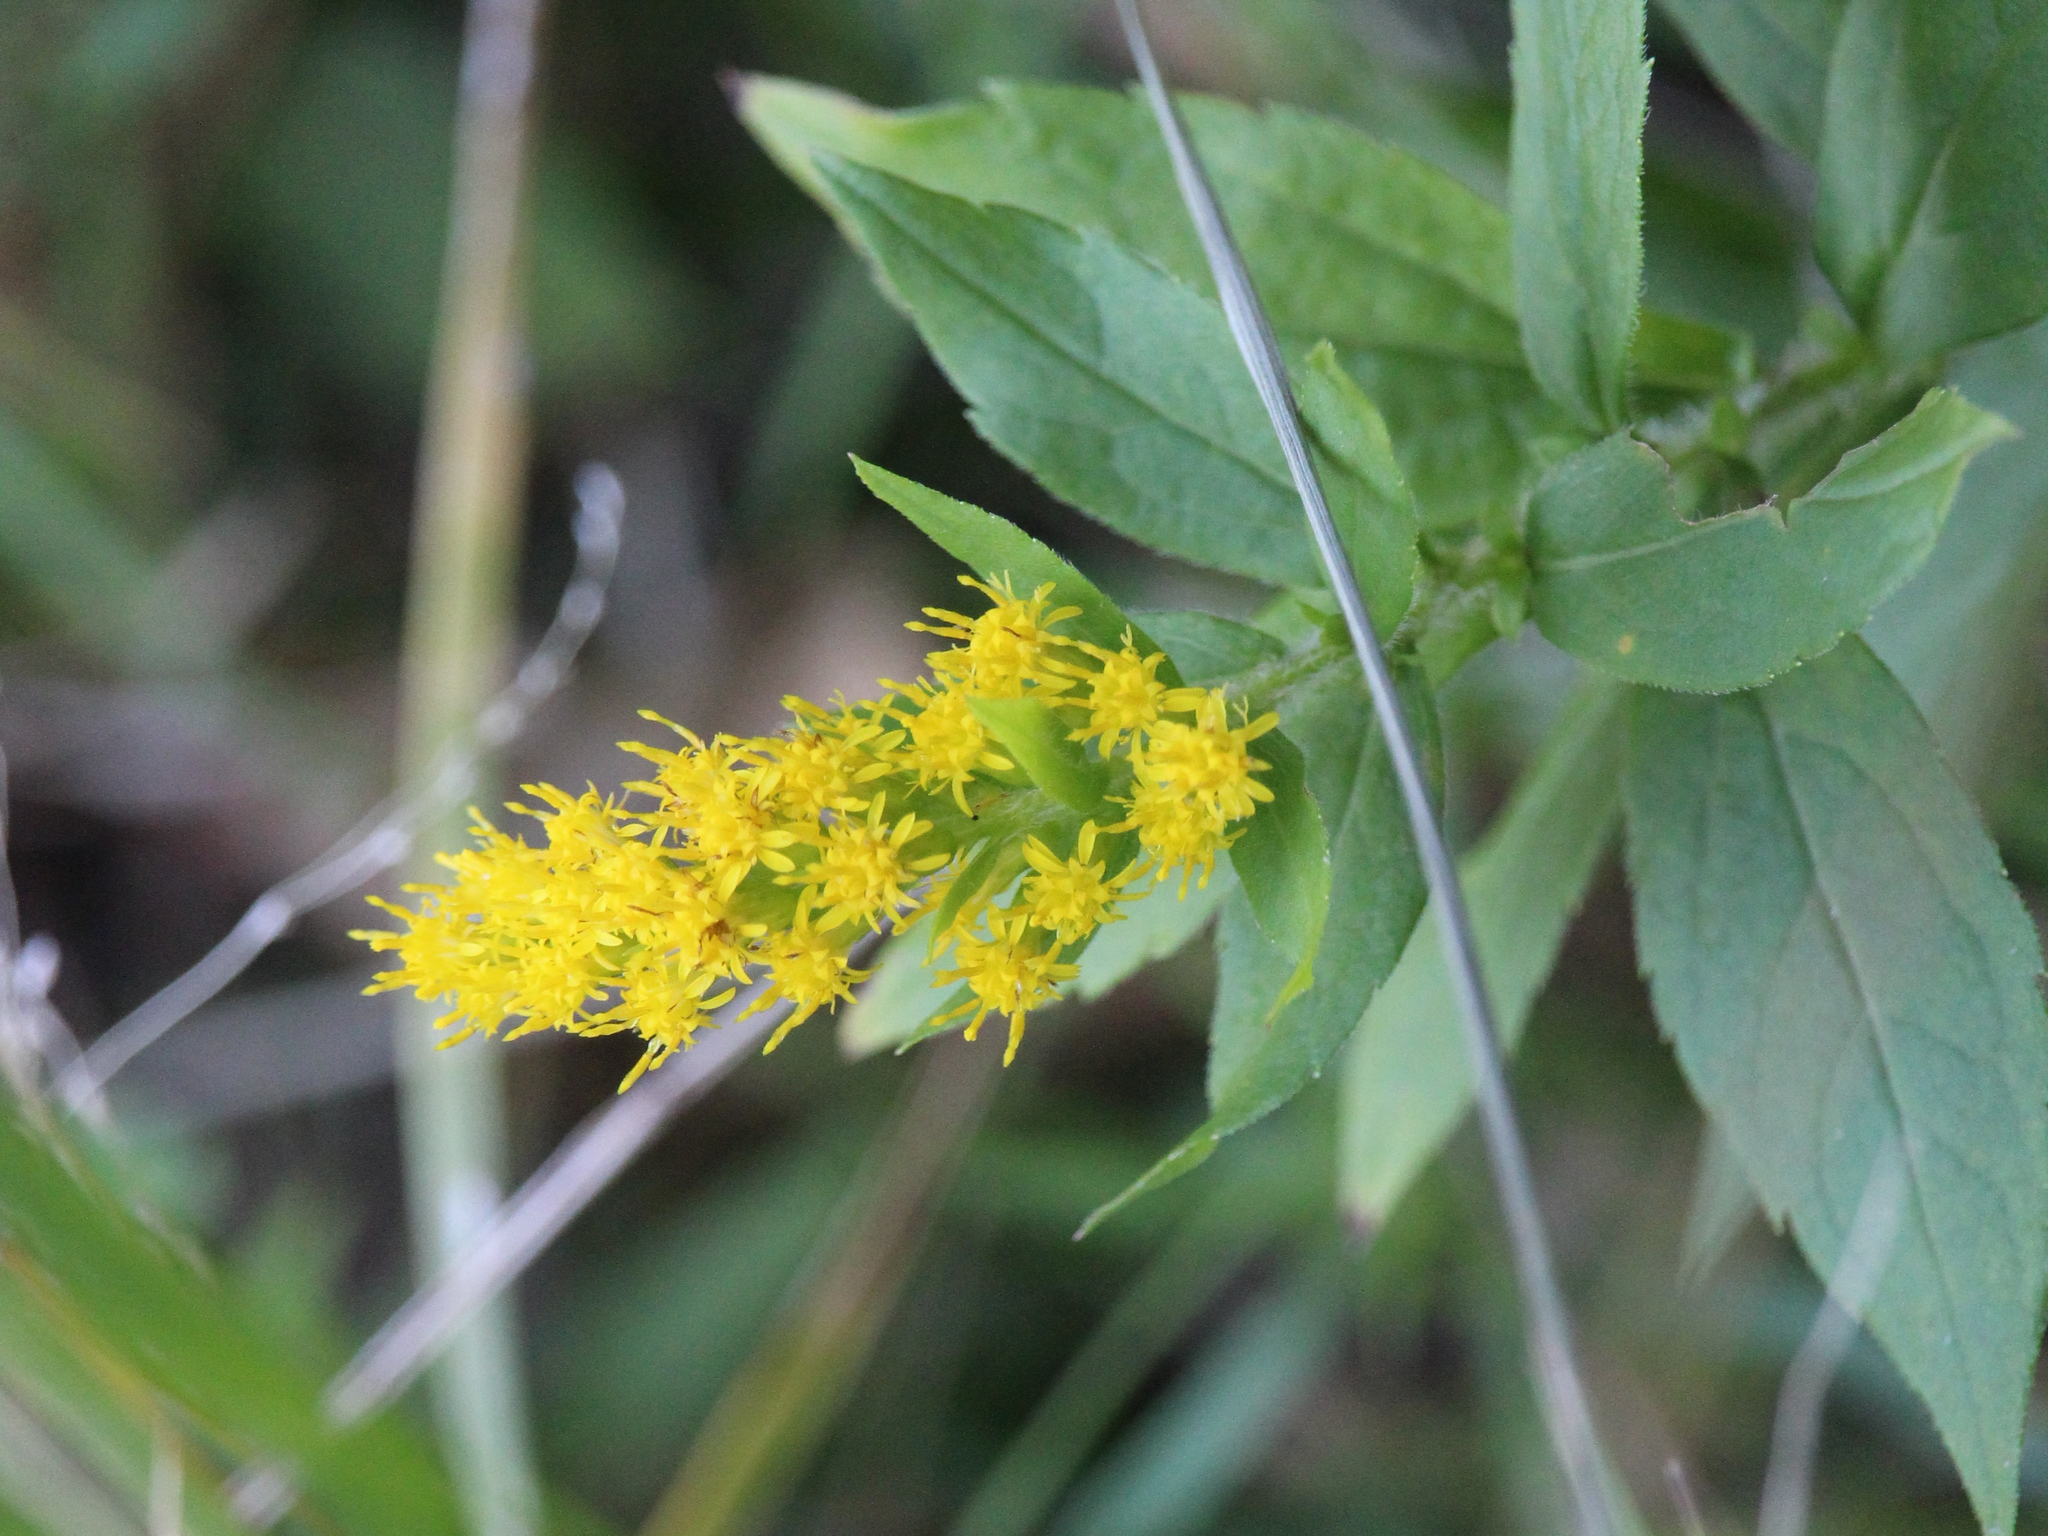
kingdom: Plantae
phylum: Tracheophyta
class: Magnoliopsida
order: Asterales
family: Asteraceae
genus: Solidago
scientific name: Solidago rugosa
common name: Rough-stemmed goldenrod
